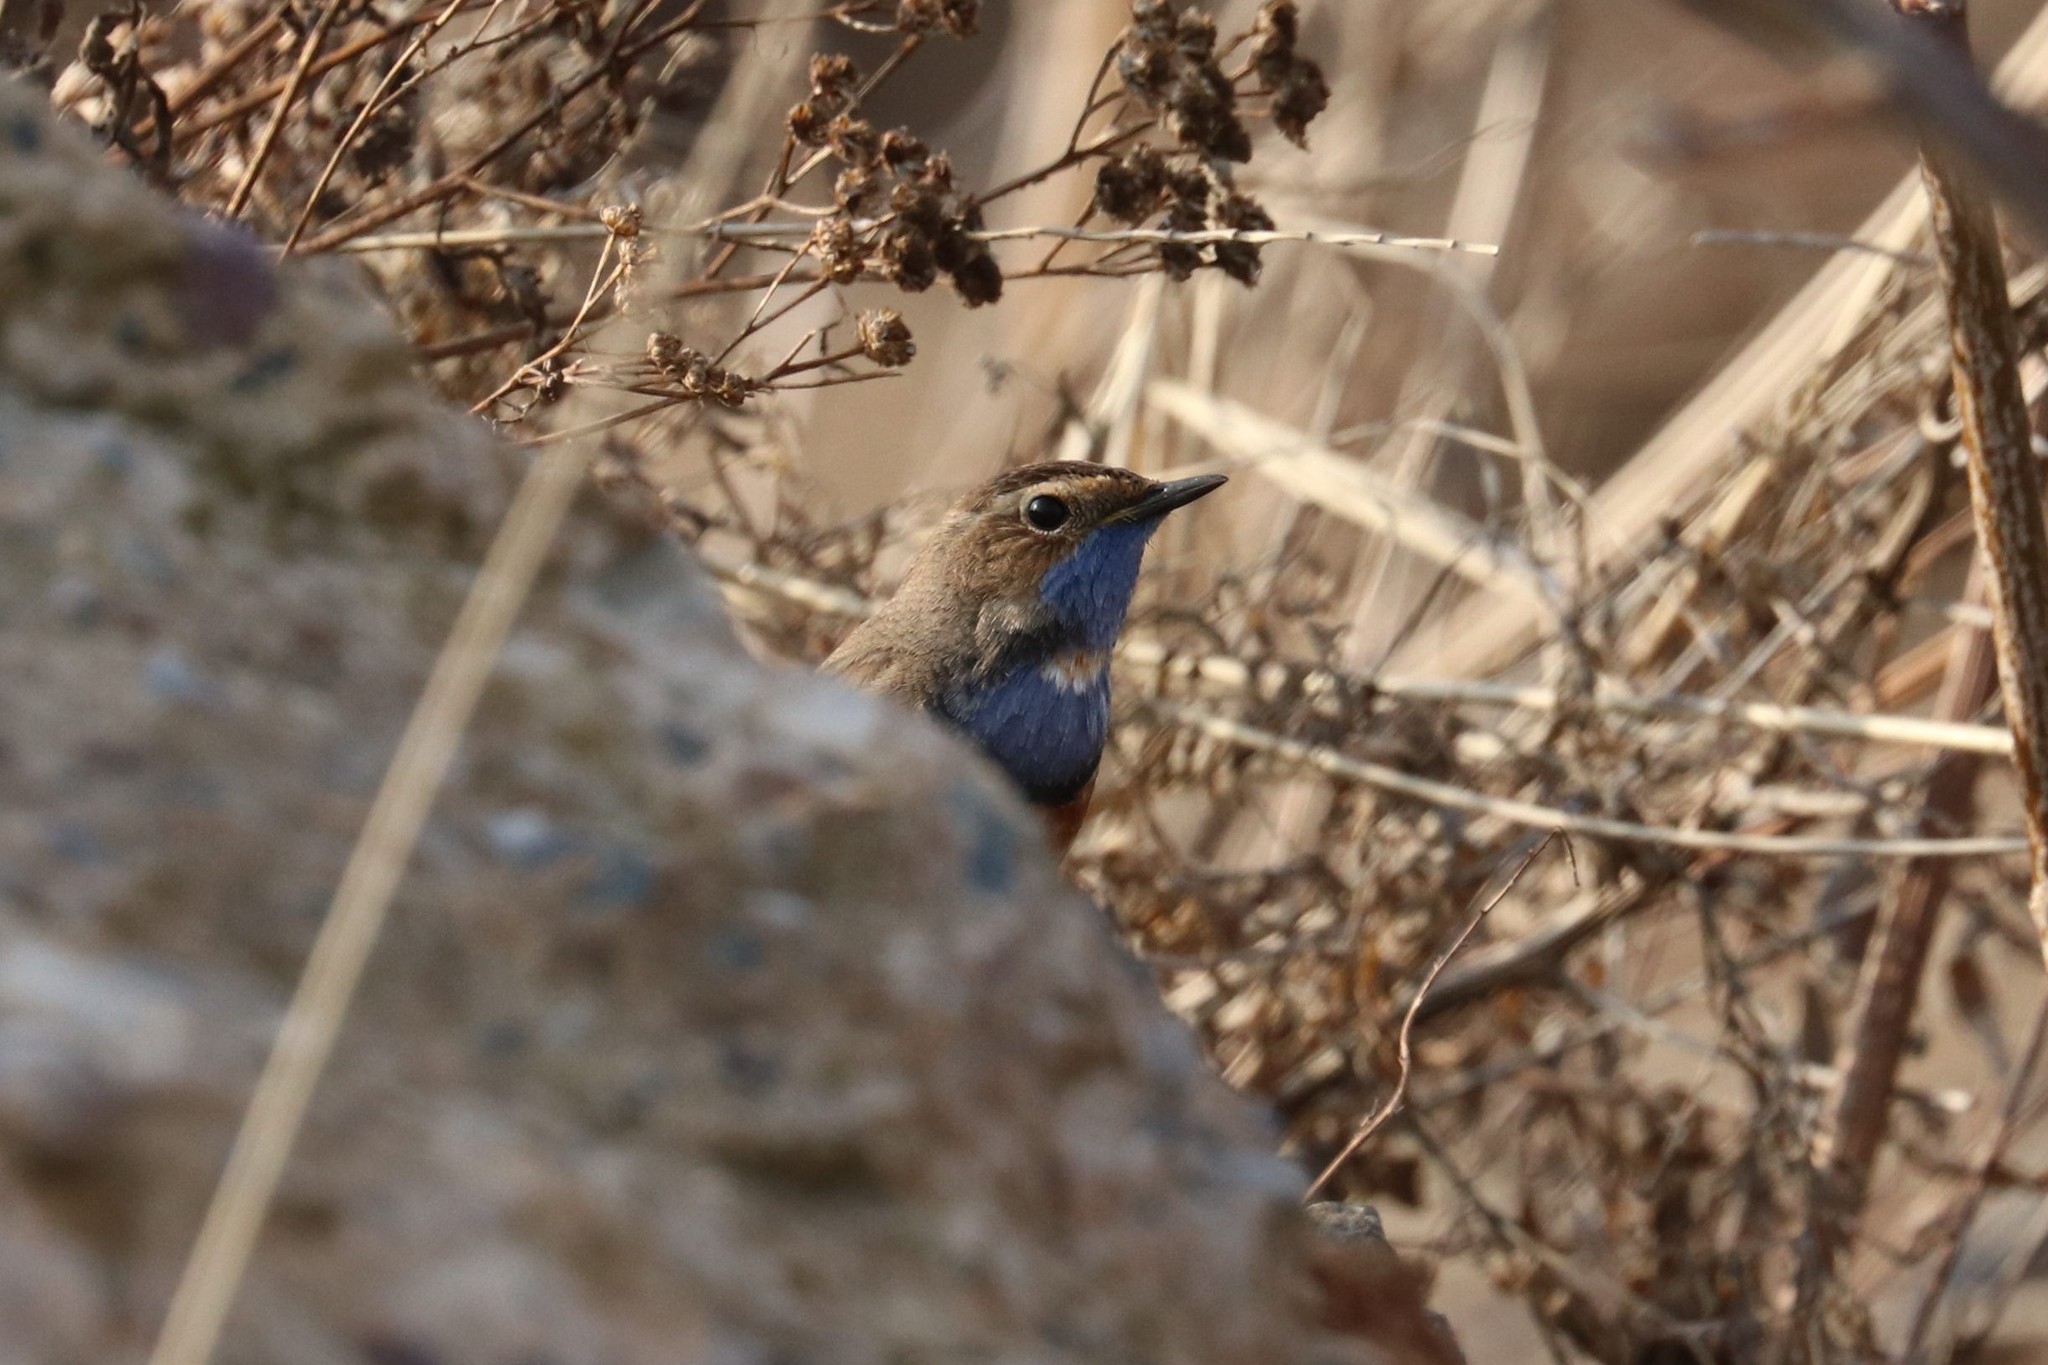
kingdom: Animalia
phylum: Chordata
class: Aves
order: Passeriformes
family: Muscicapidae
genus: Luscinia
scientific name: Luscinia svecica
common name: Bluethroat
